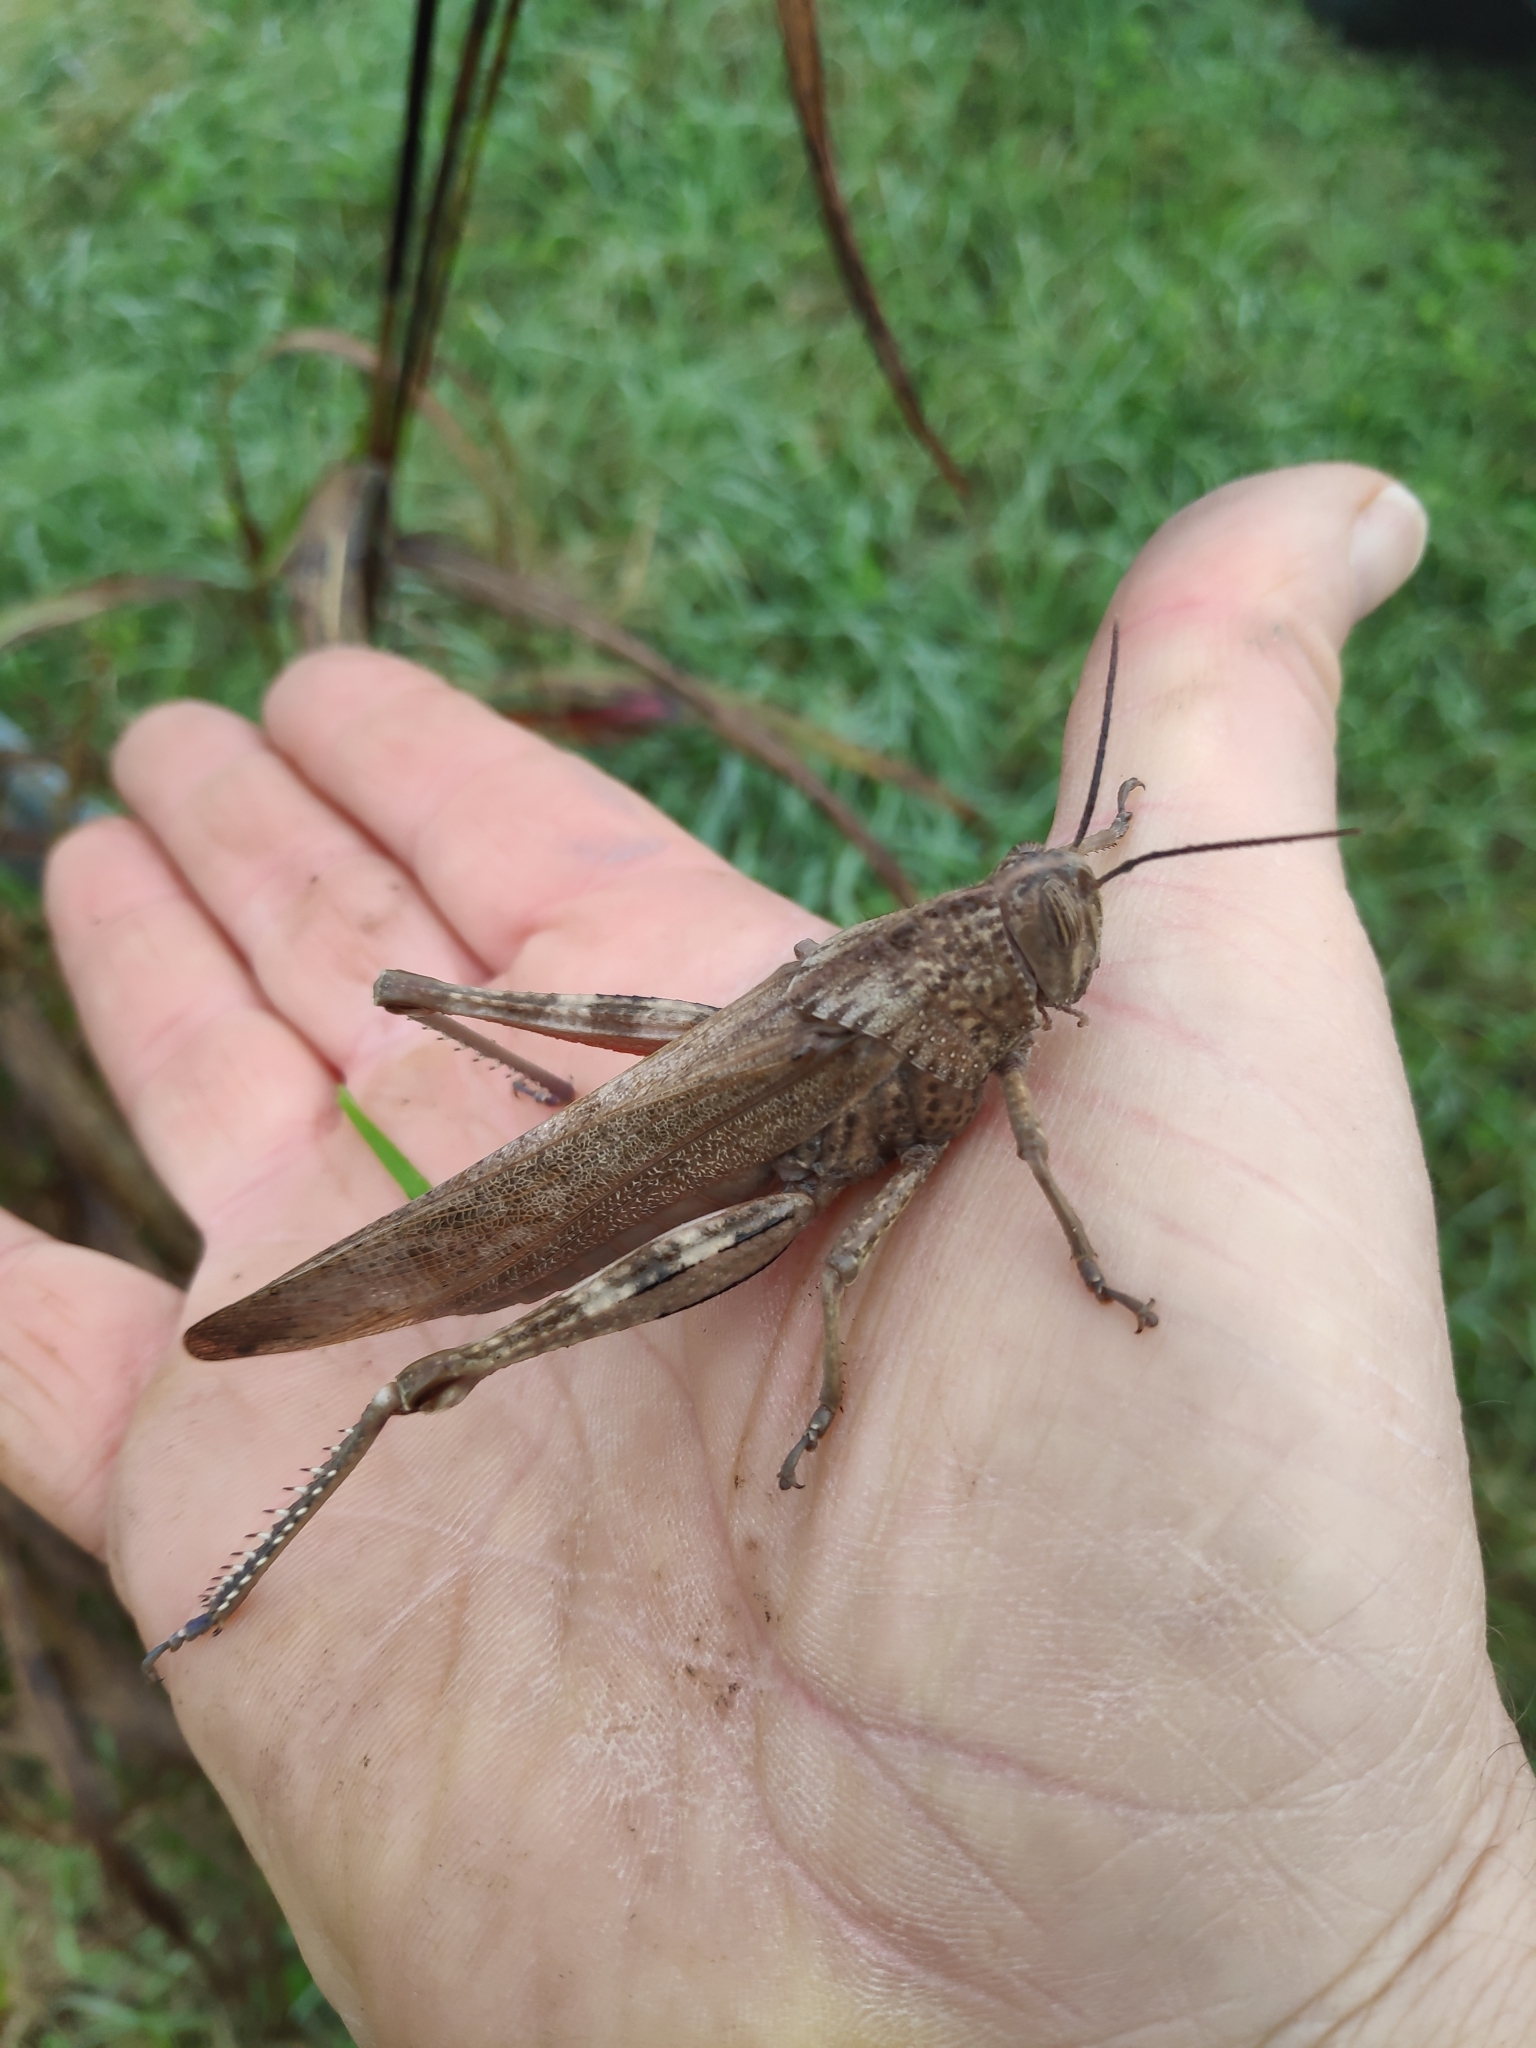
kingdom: Animalia
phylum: Arthropoda
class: Insecta
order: Orthoptera
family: Acrididae
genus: Anacridium
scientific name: Anacridium aegyptium
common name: Egyptian grasshopper
